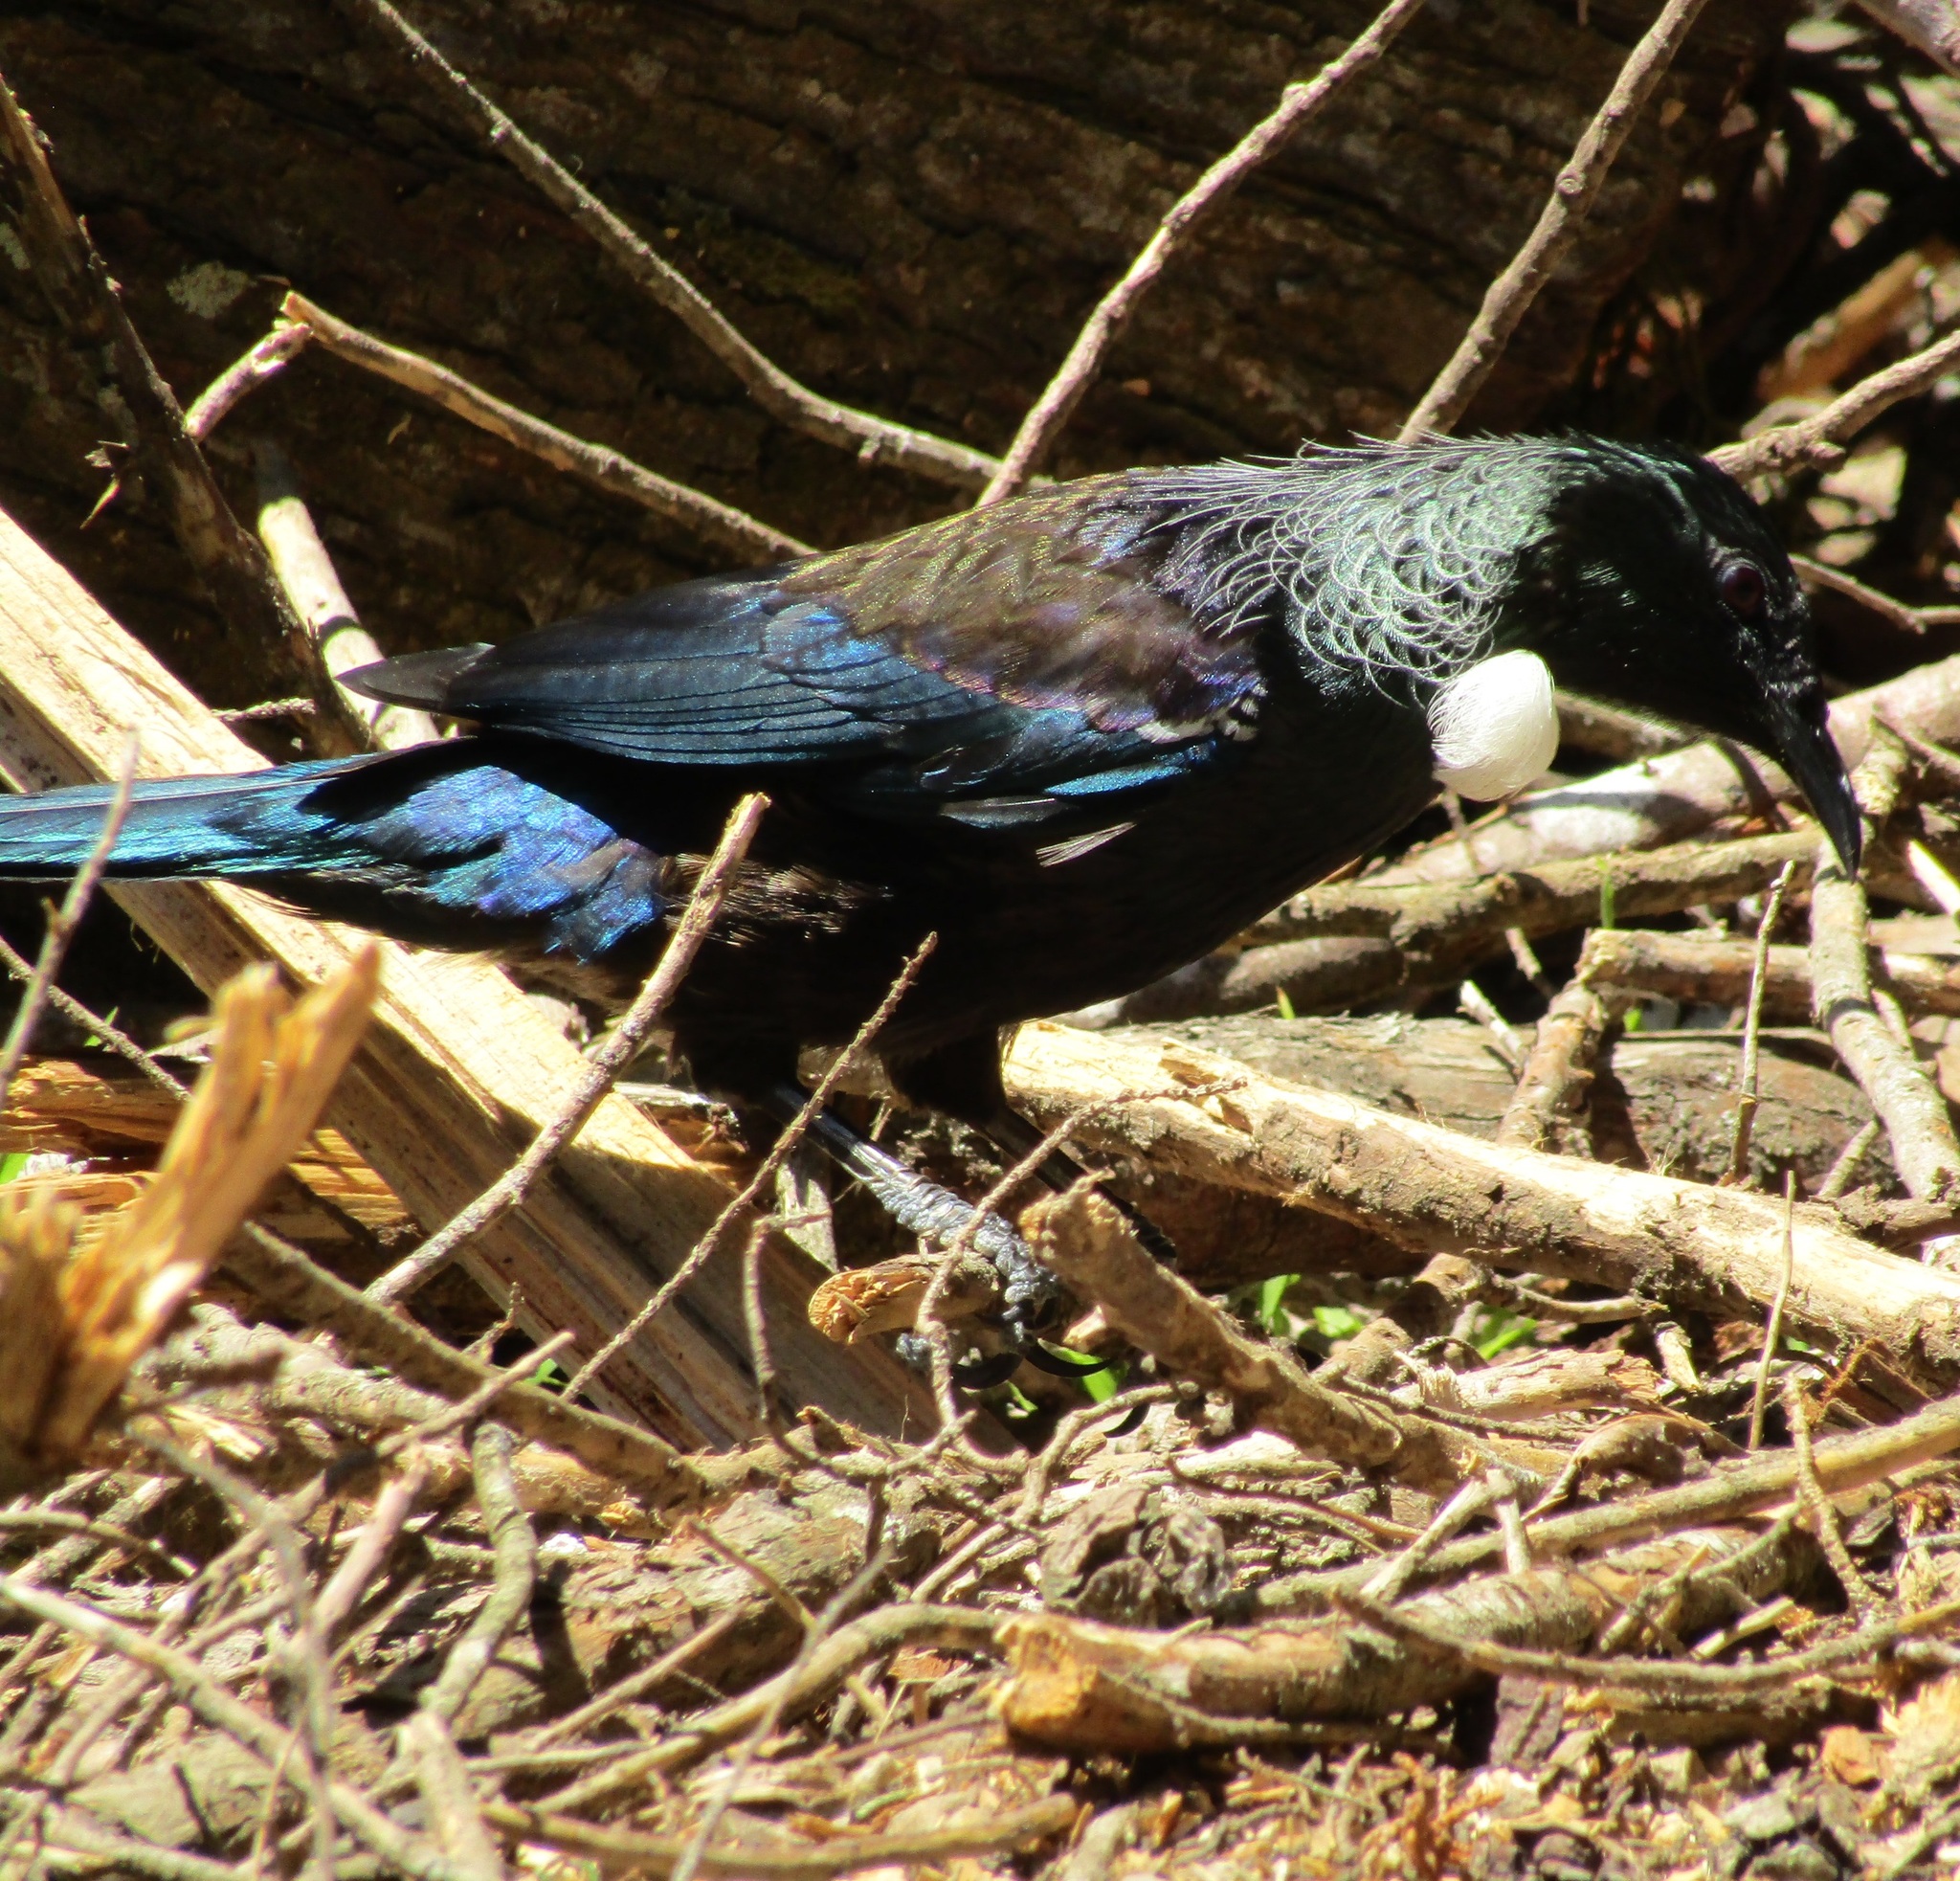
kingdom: Animalia
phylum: Chordata
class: Aves
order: Passeriformes
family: Meliphagidae
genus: Prosthemadera
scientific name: Prosthemadera novaeseelandiae
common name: Tui
